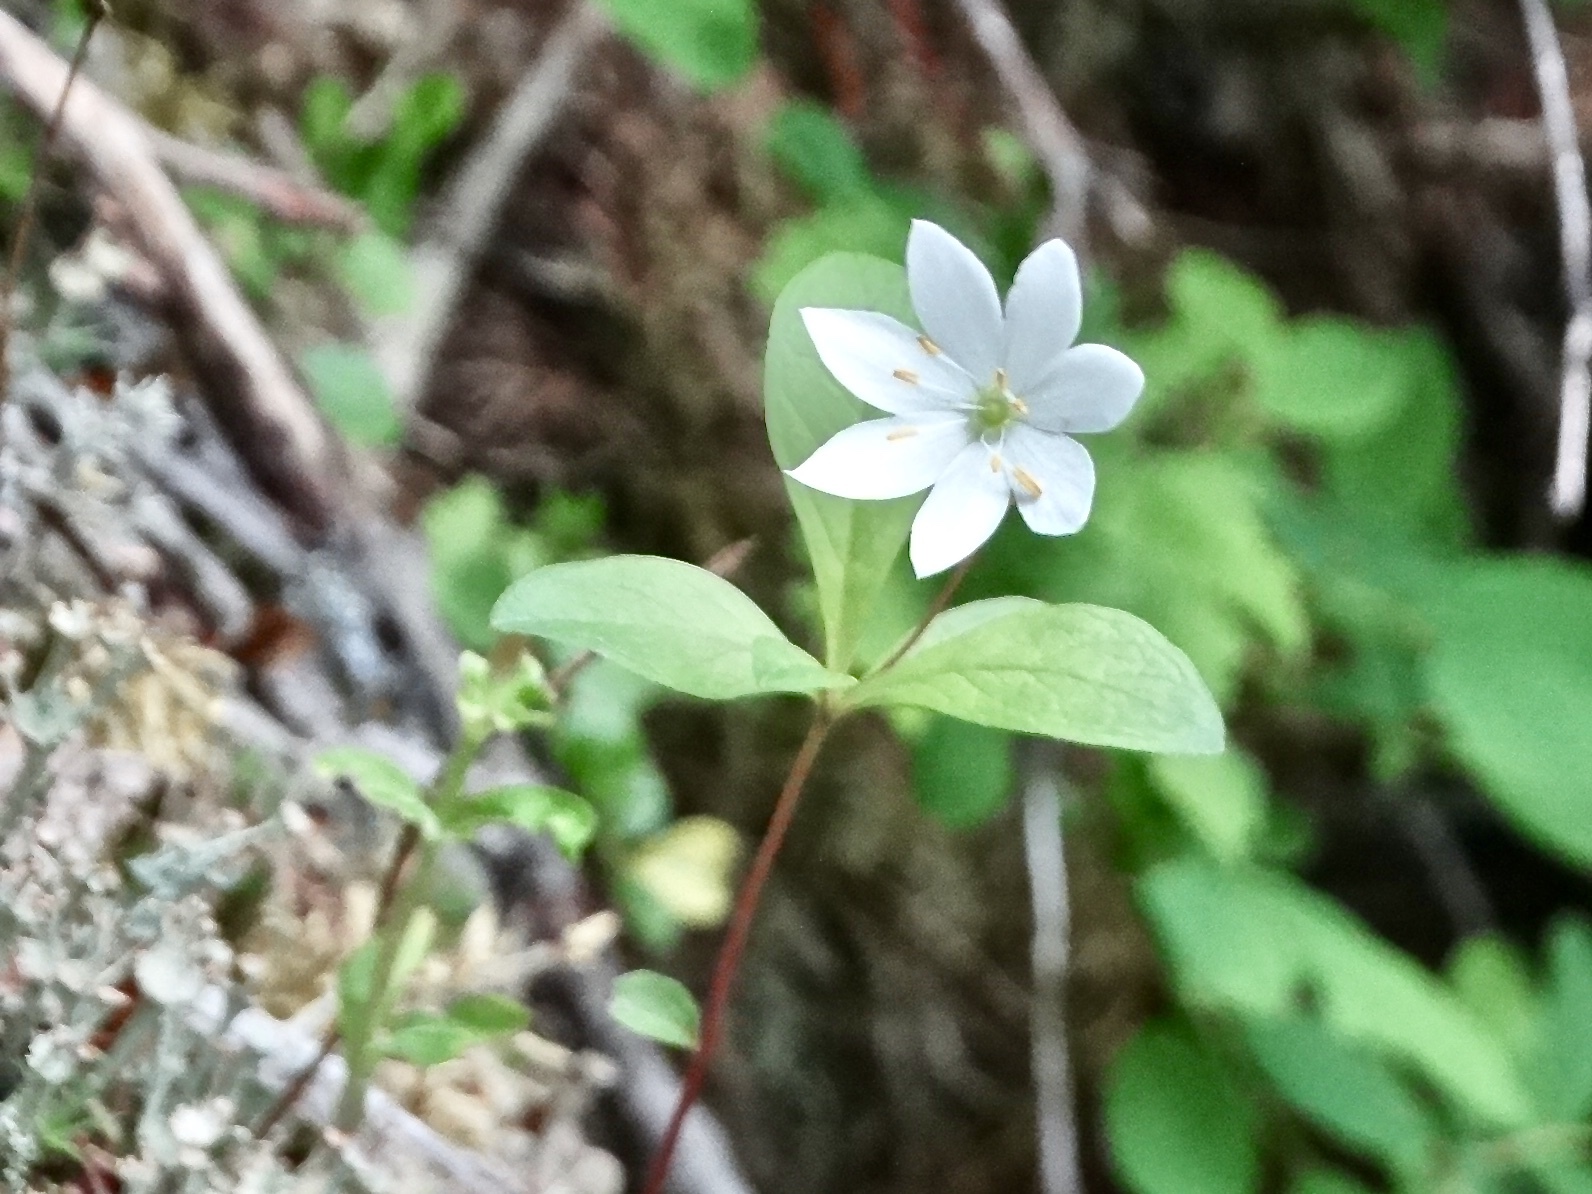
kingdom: Plantae
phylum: Tracheophyta
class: Magnoliopsida
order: Ericales
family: Primulaceae
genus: Lysimachia
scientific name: Lysimachia europaea
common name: Arctic starflower
